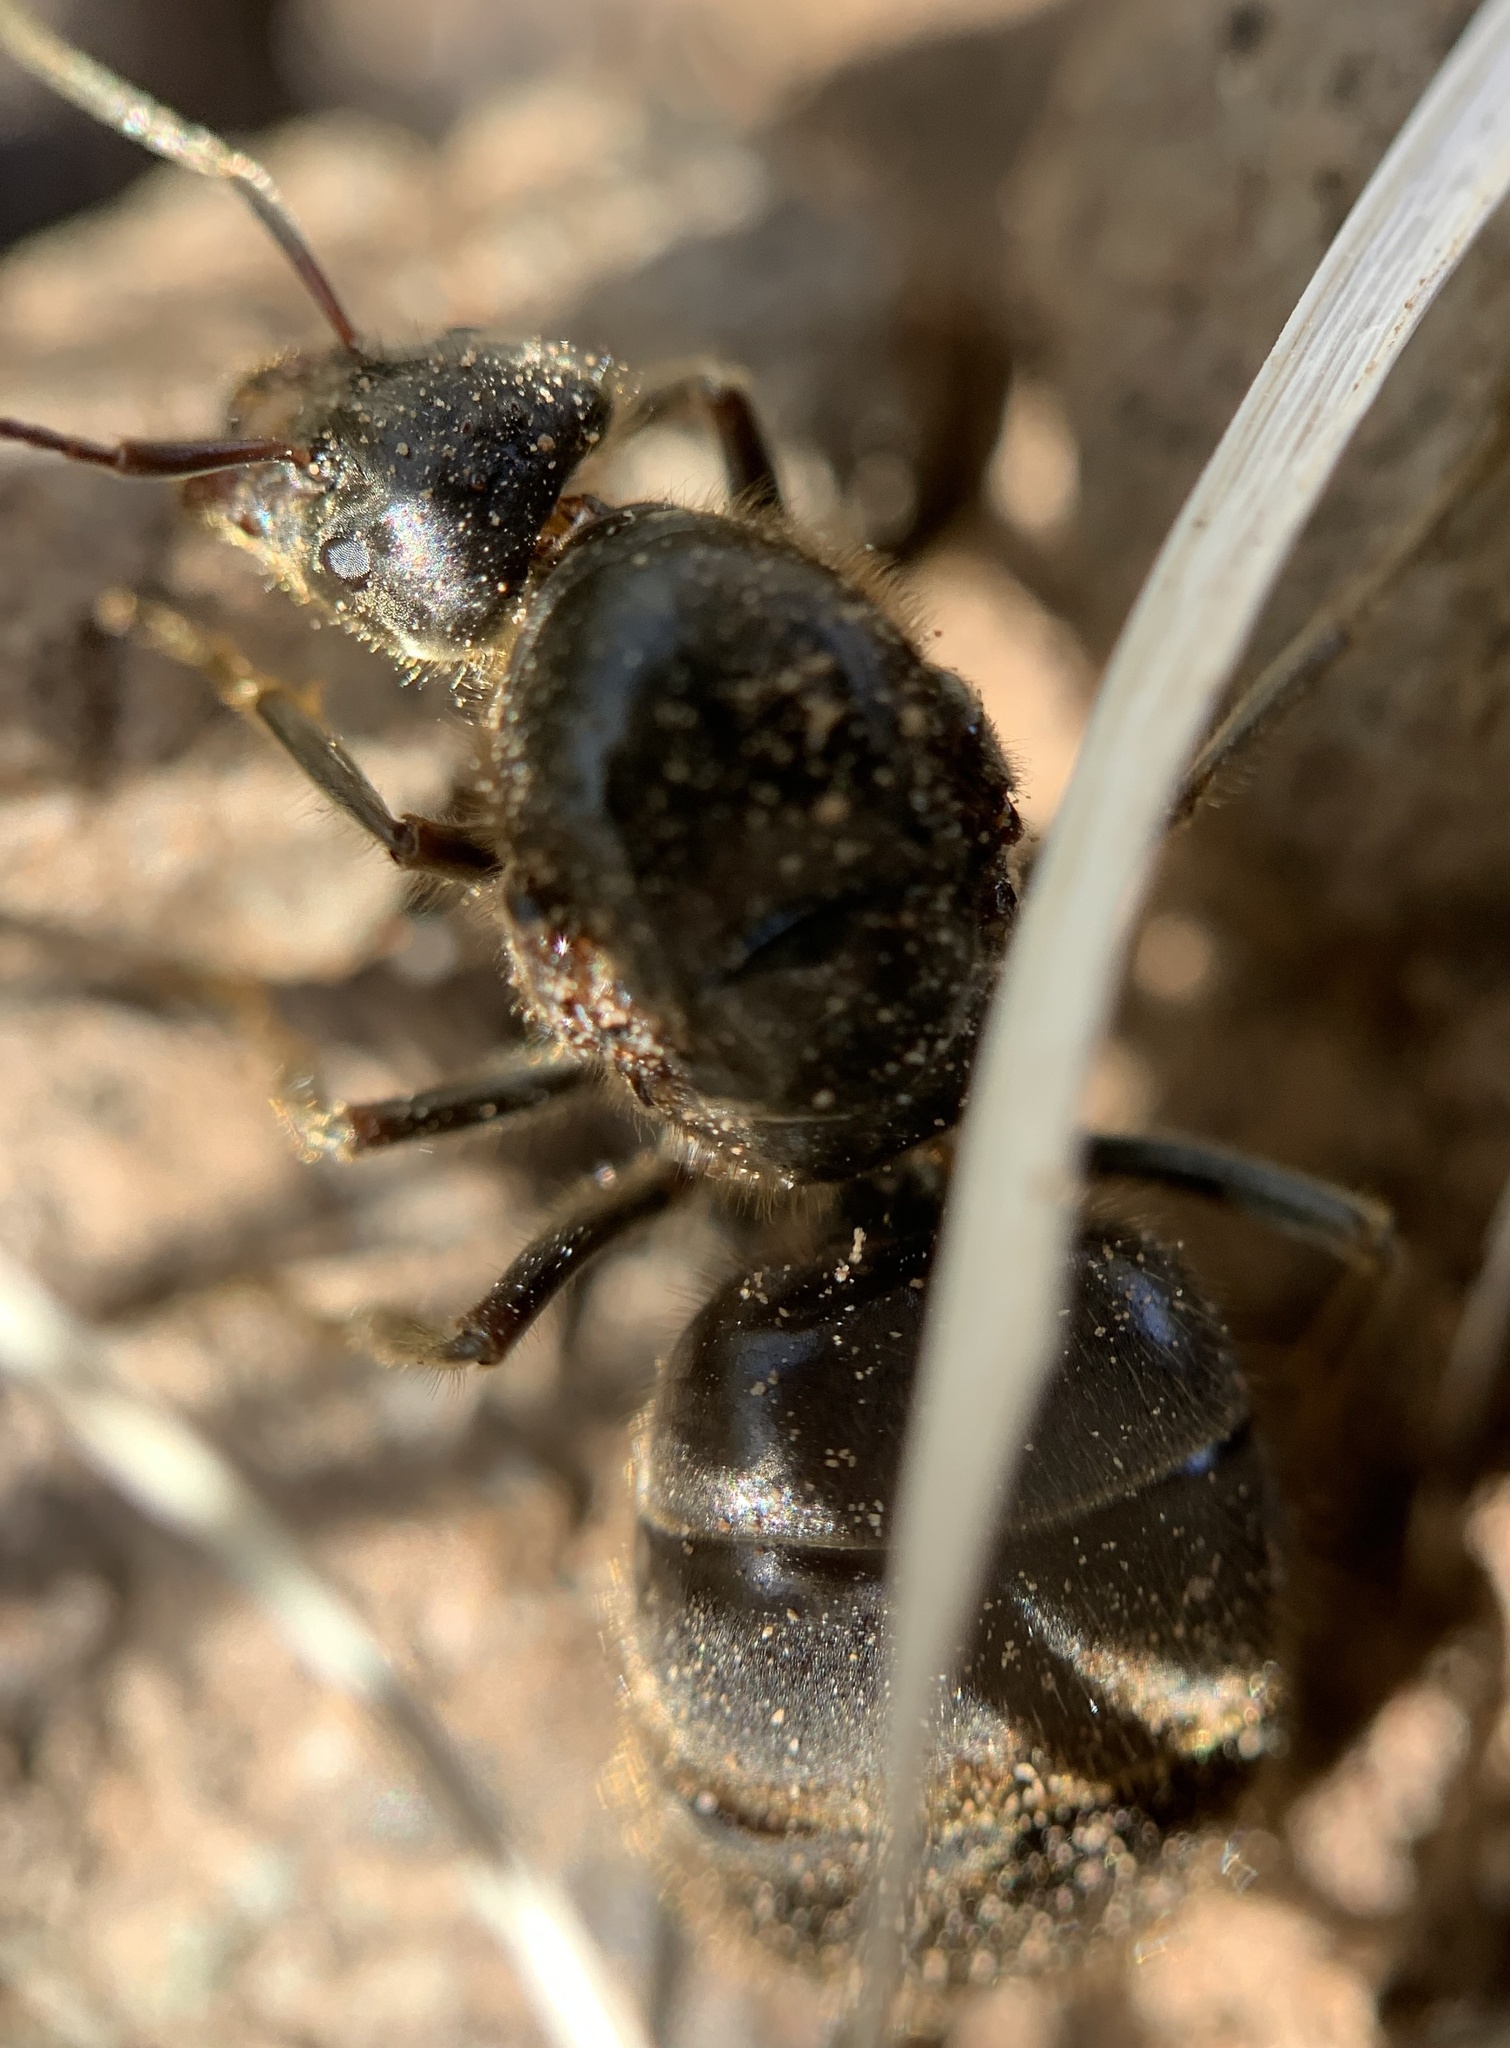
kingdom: Animalia
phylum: Arthropoda
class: Insecta
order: Hymenoptera
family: Formicidae
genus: Liometopum
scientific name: Liometopum apiculatum
